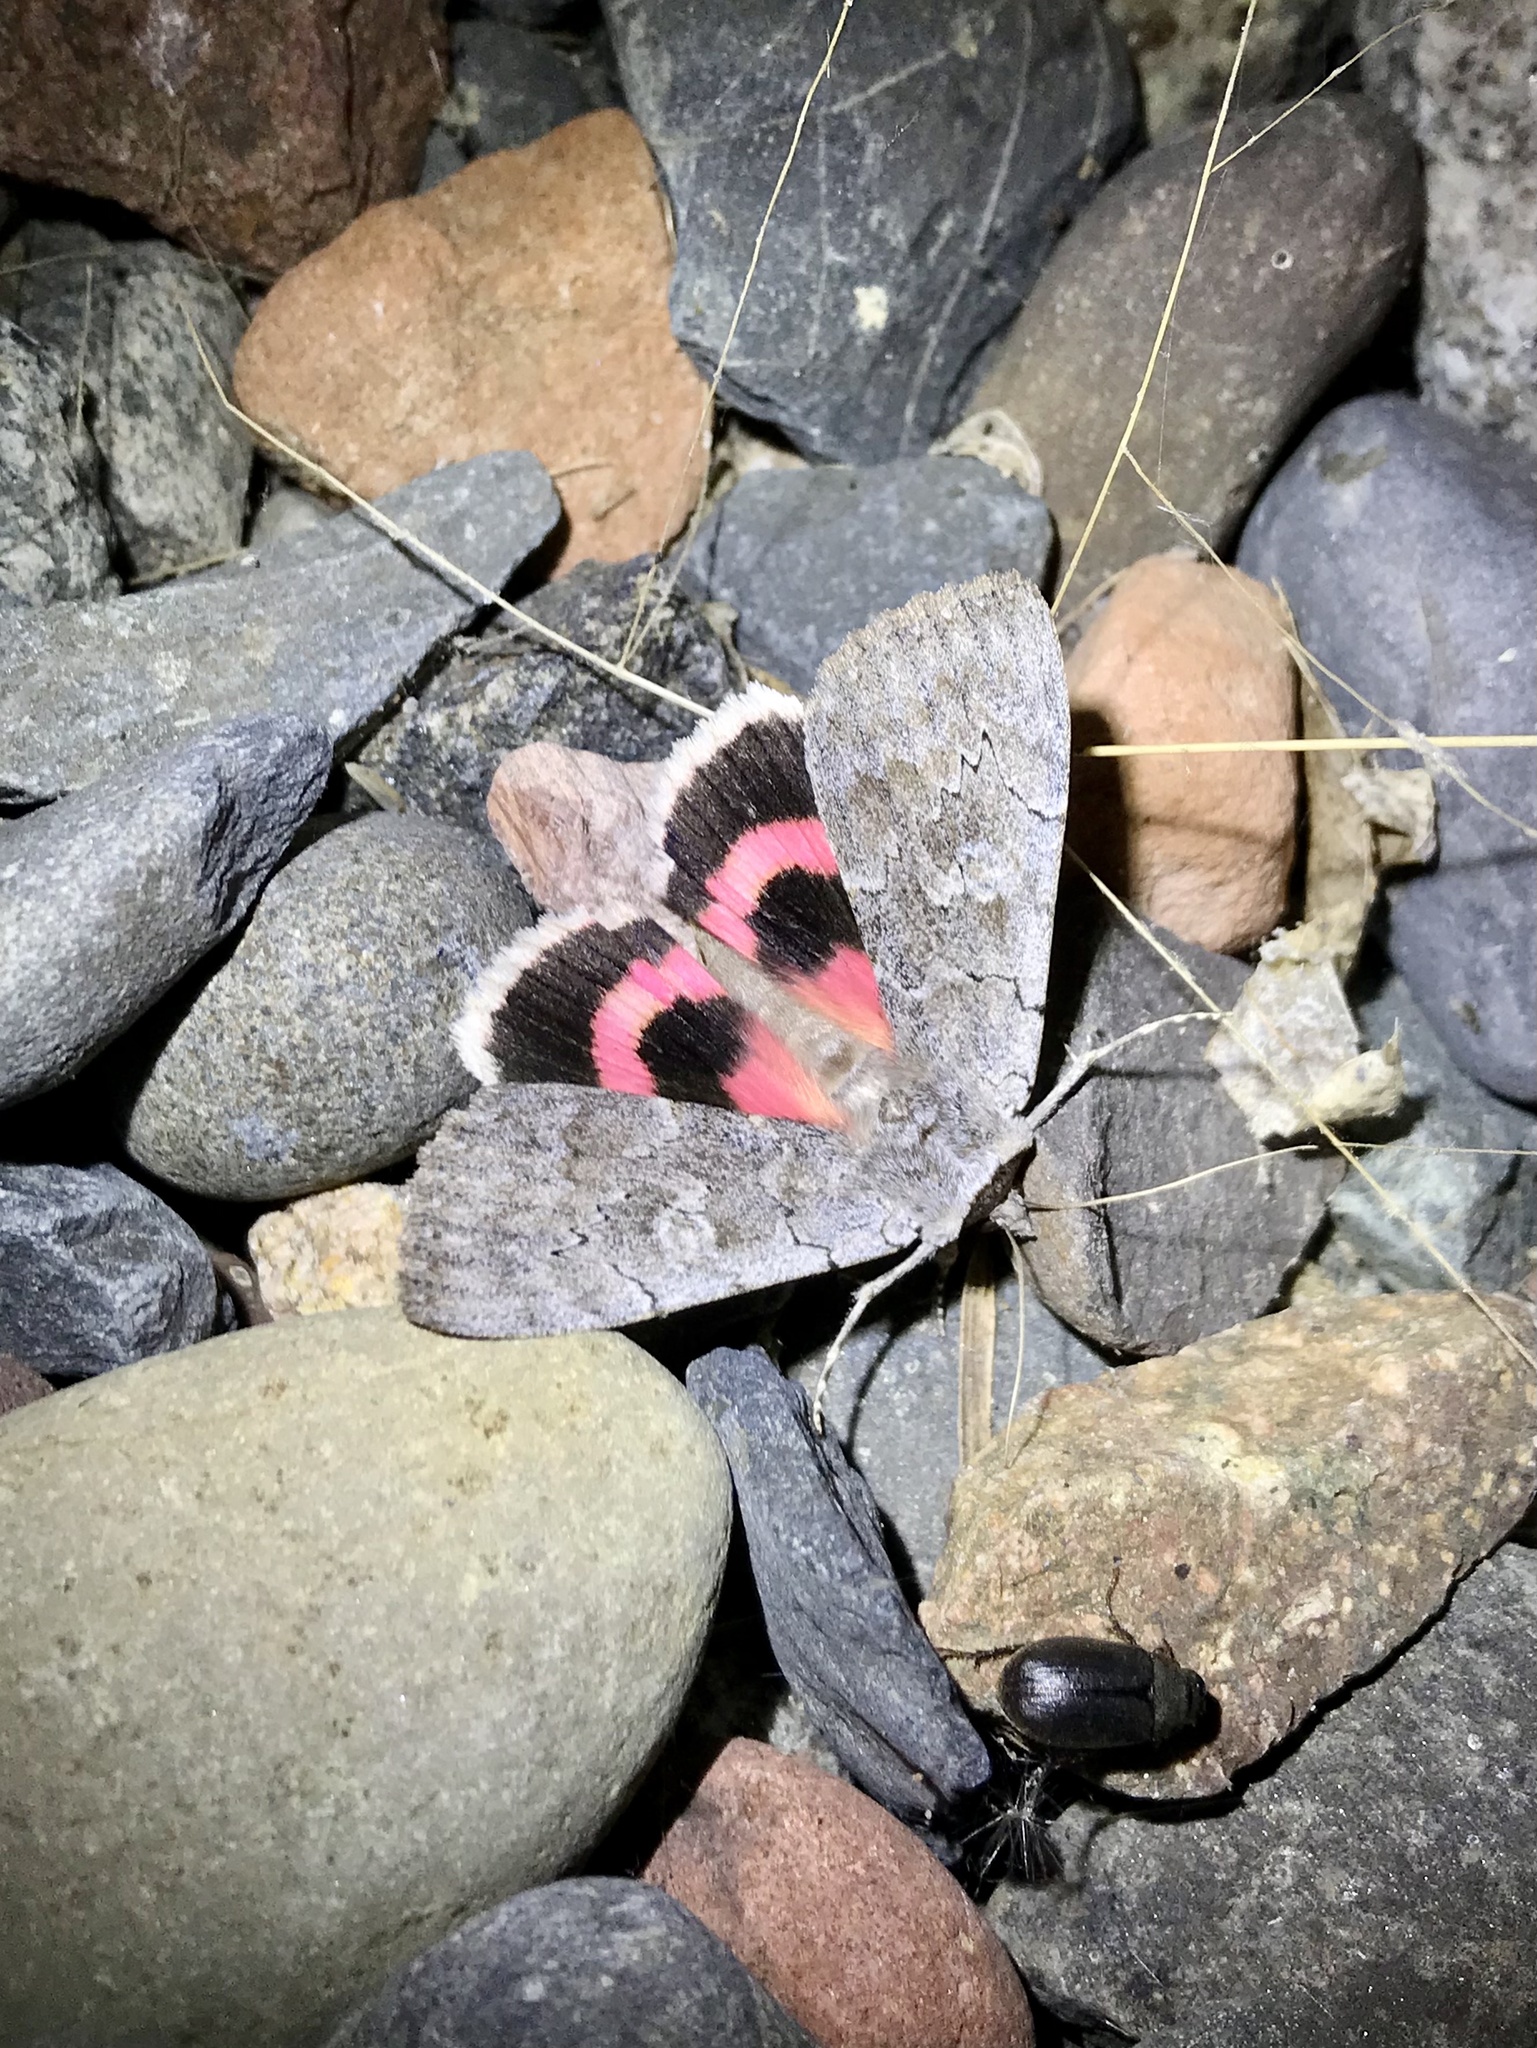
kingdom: Animalia
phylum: Arthropoda
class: Insecta
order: Lepidoptera
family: Erebidae
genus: Catocala
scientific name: Catocala concumbens
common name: Pink underwing
